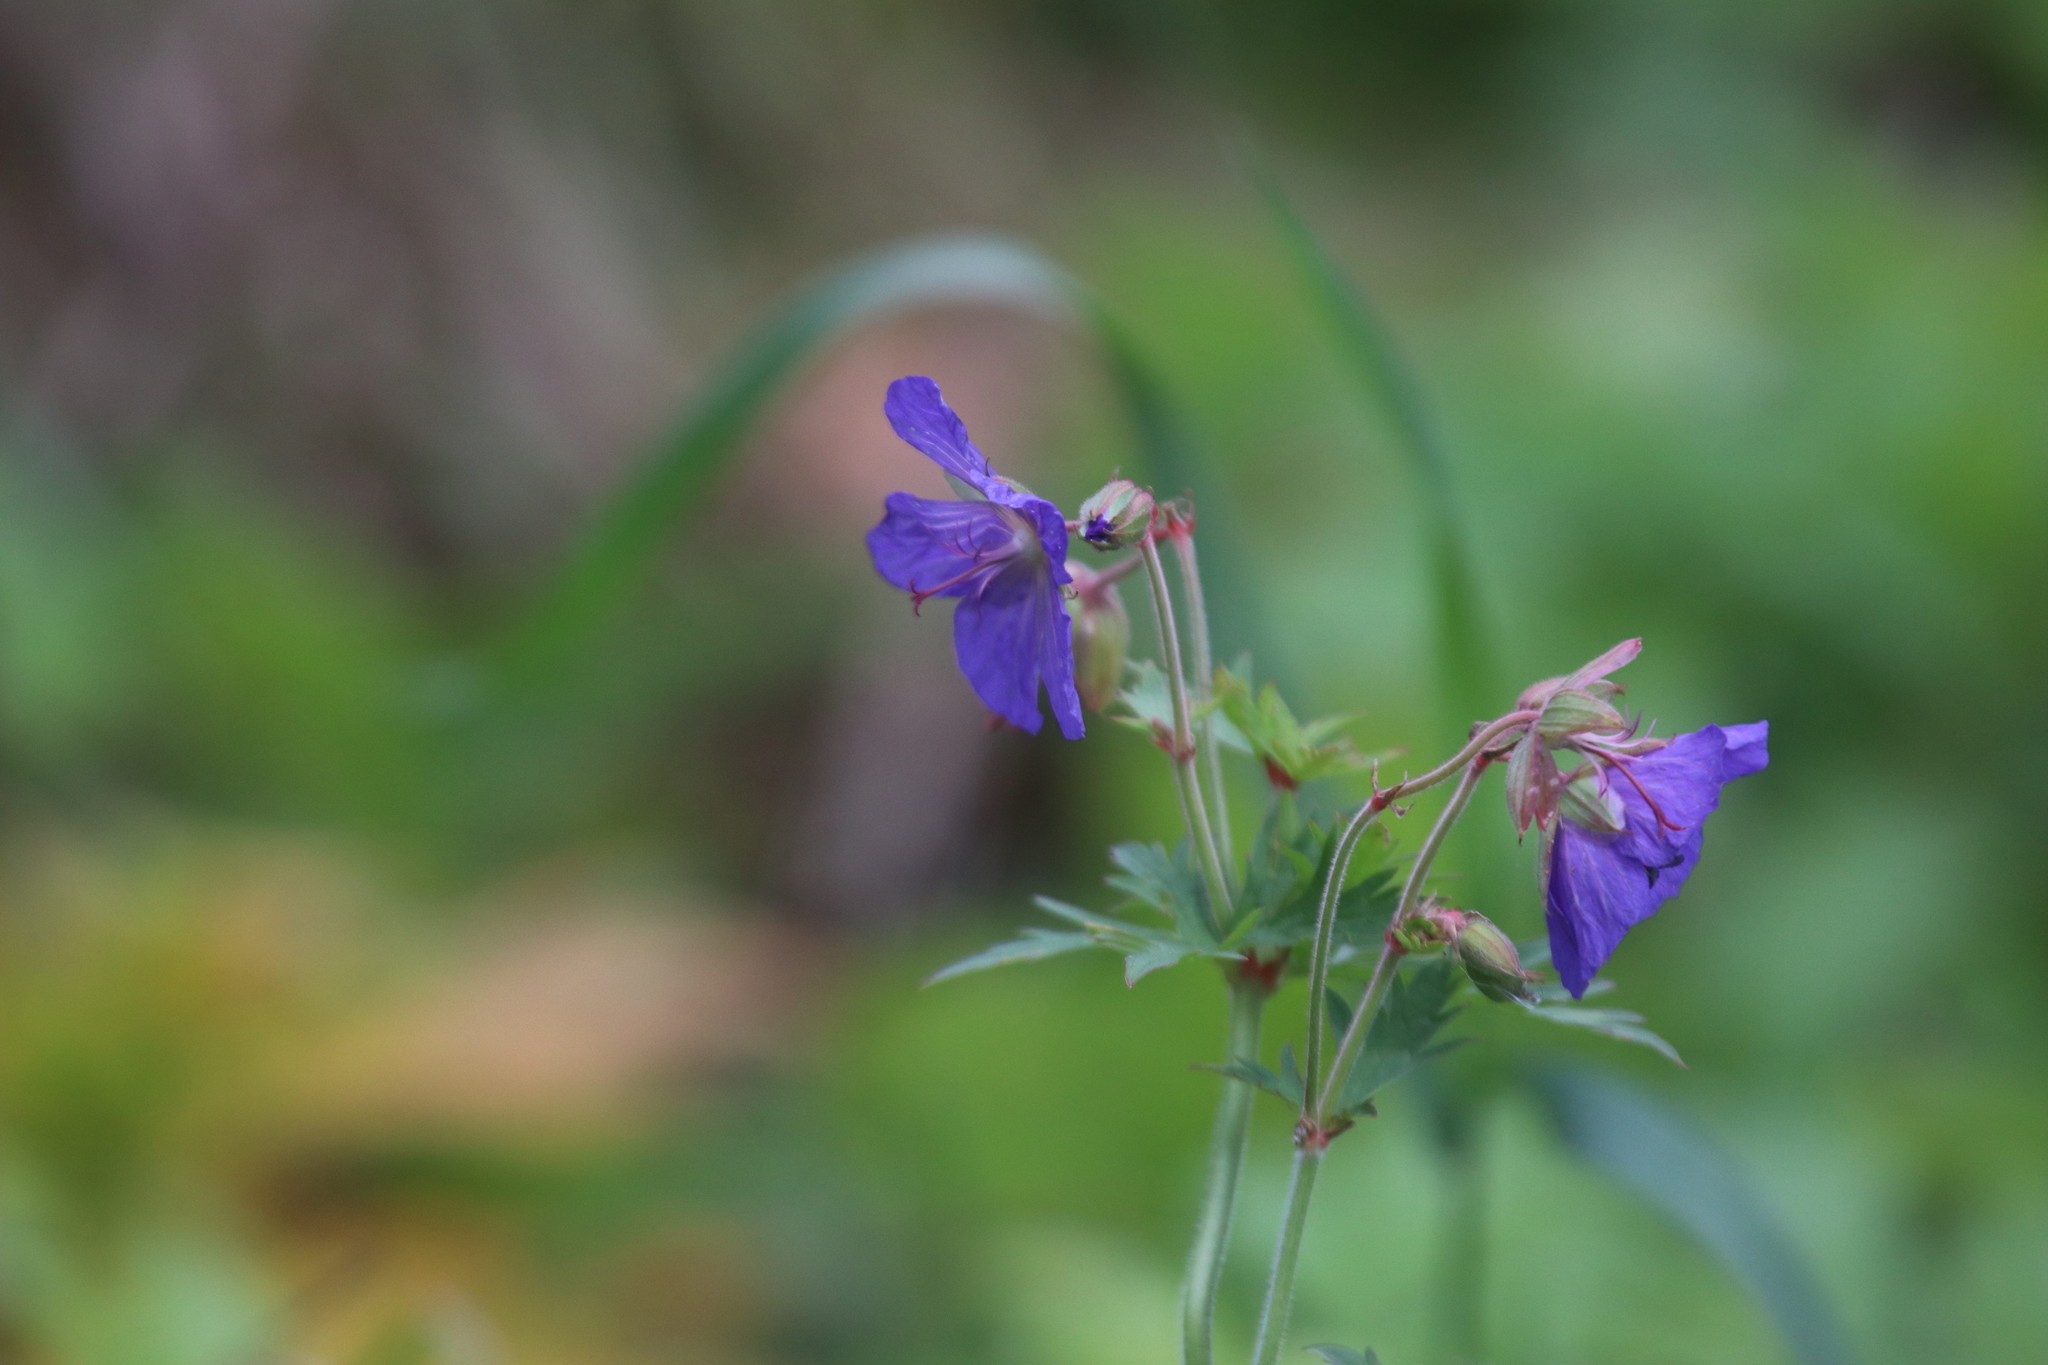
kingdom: Plantae
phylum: Tracheophyta
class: Magnoliopsida
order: Geraniales
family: Geraniaceae
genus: Geranium
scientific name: Geranium pratense
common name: Meadow crane's-bill
